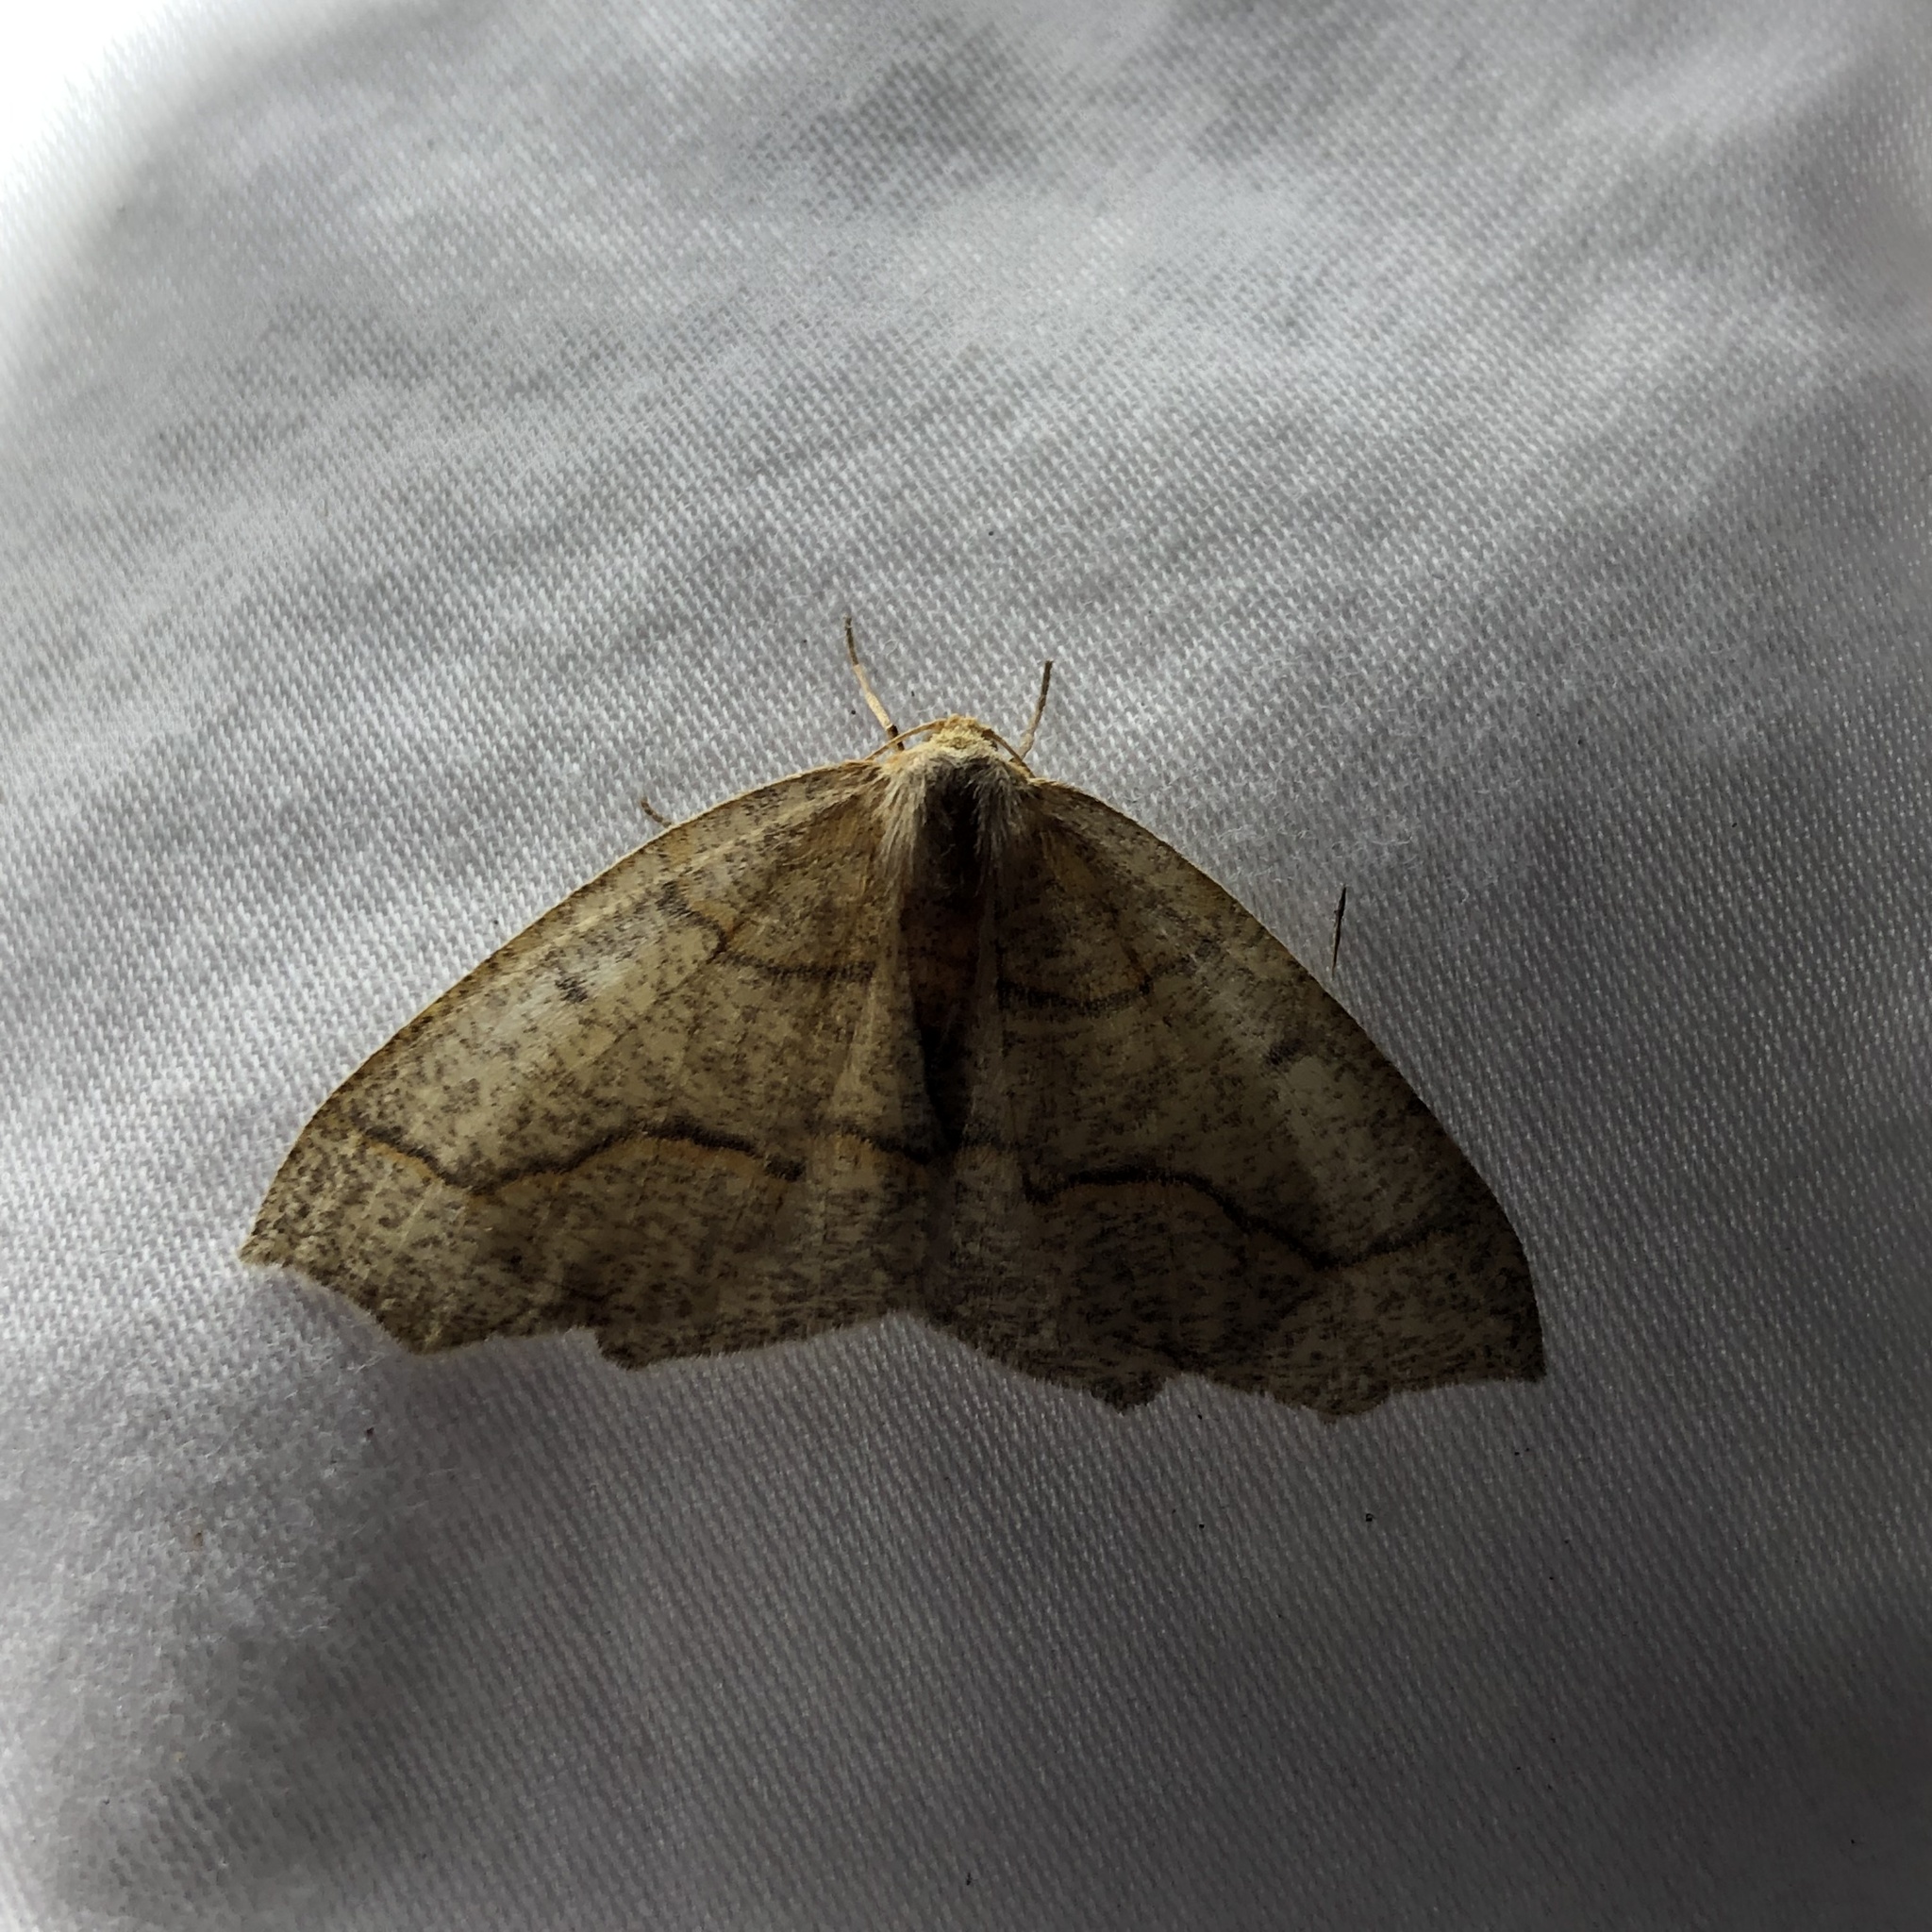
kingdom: Animalia
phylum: Arthropoda
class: Insecta
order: Lepidoptera
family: Geometridae
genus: Lambdina
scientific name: Lambdina fiscellaria
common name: Hemlock looper
